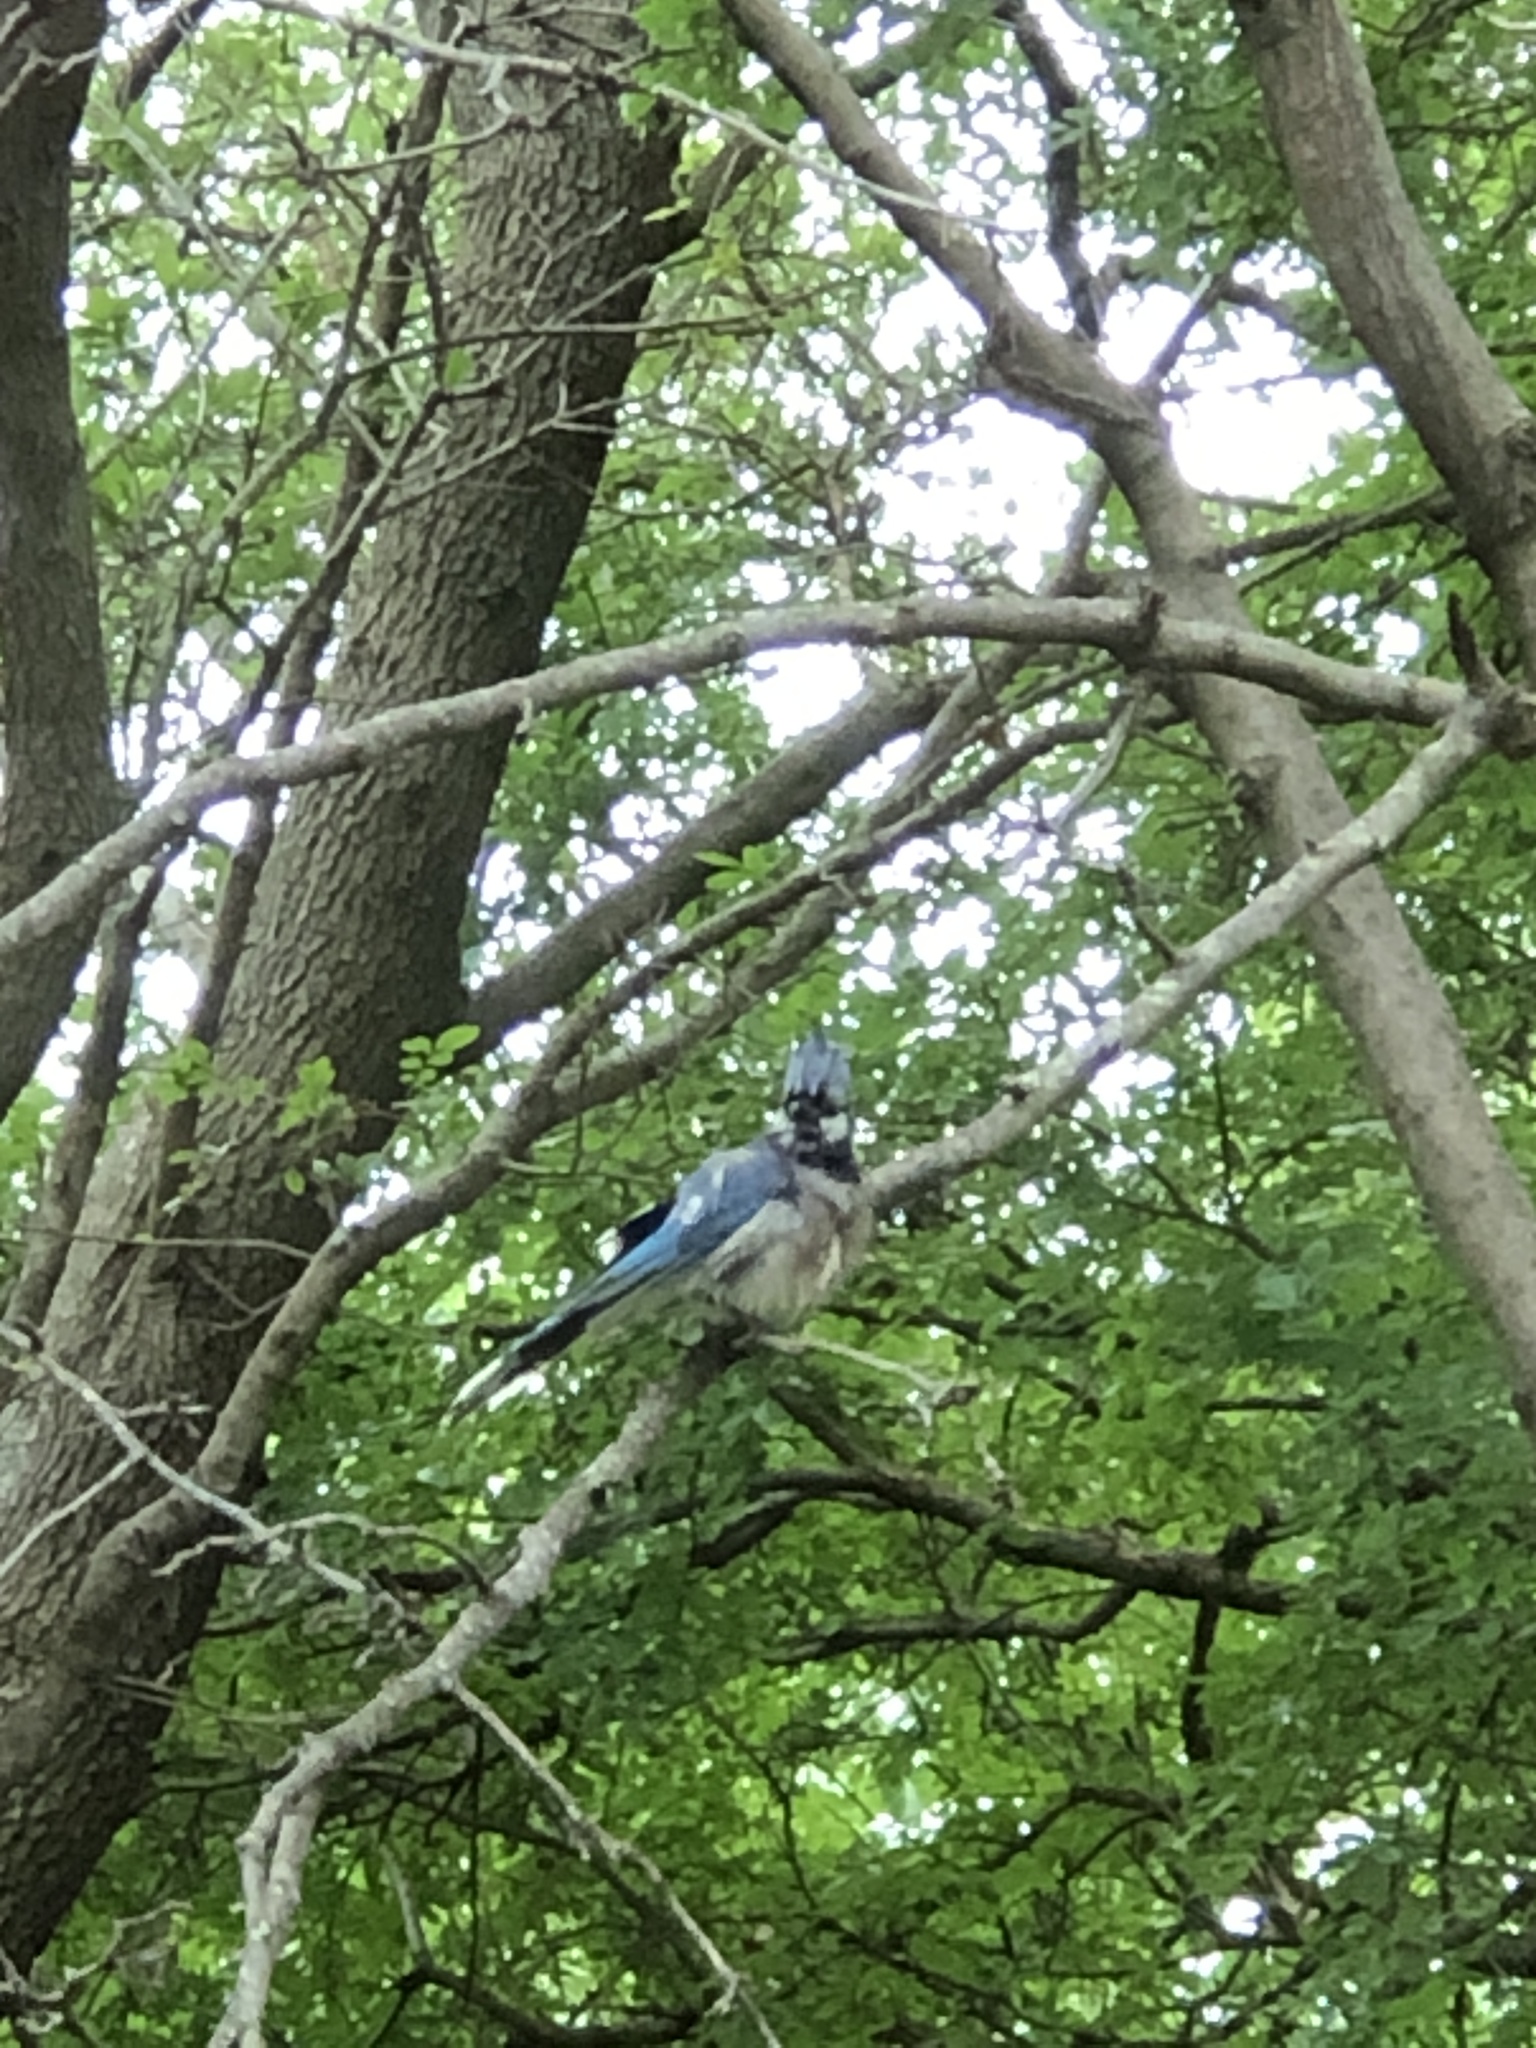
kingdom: Animalia
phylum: Chordata
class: Aves
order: Passeriformes
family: Corvidae
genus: Cyanocitta
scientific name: Cyanocitta cristata
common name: Blue jay
